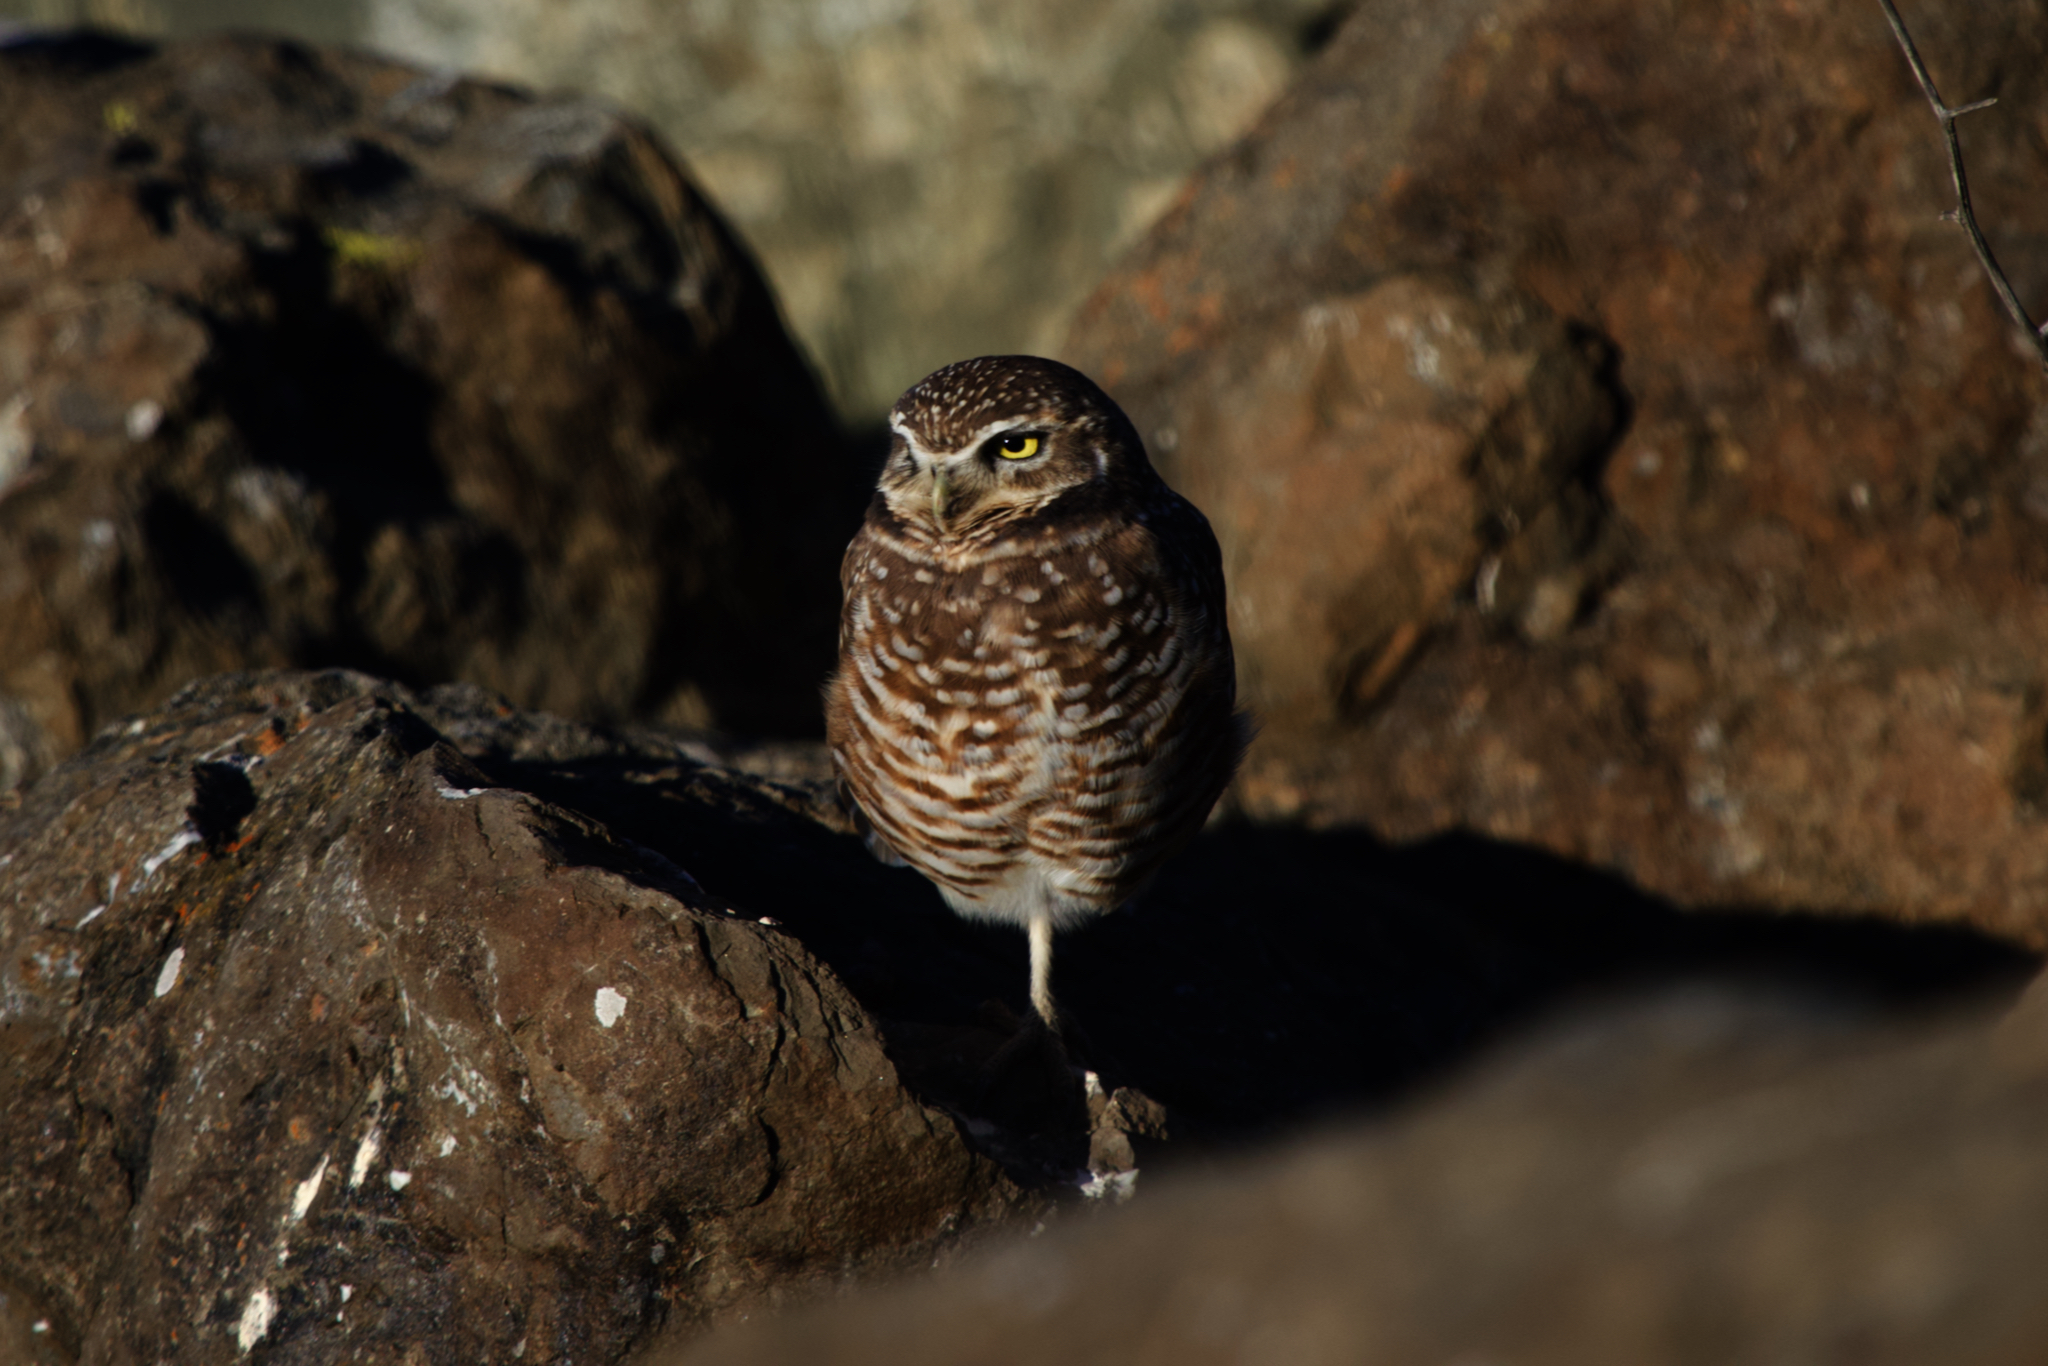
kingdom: Animalia
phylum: Chordata
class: Aves
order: Strigiformes
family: Strigidae
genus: Athene
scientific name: Athene cunicularia
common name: Burrowing owl
